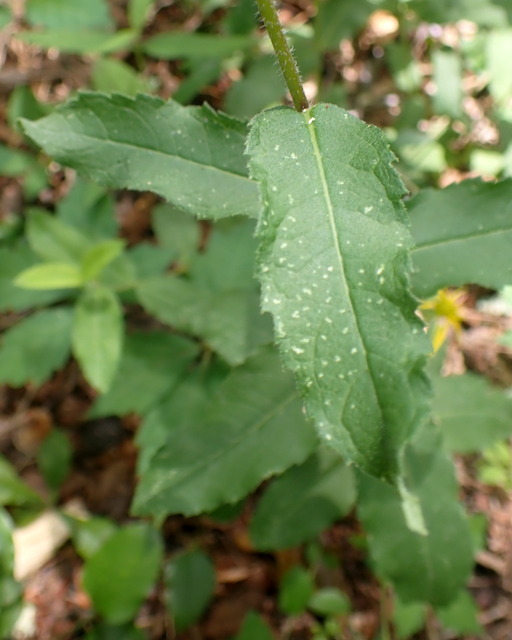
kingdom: Plantae
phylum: Tracheophyta
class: Magnoliopsida
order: Asterales
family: Asteraceae
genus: Verbesina
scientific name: Verbesina aristata
